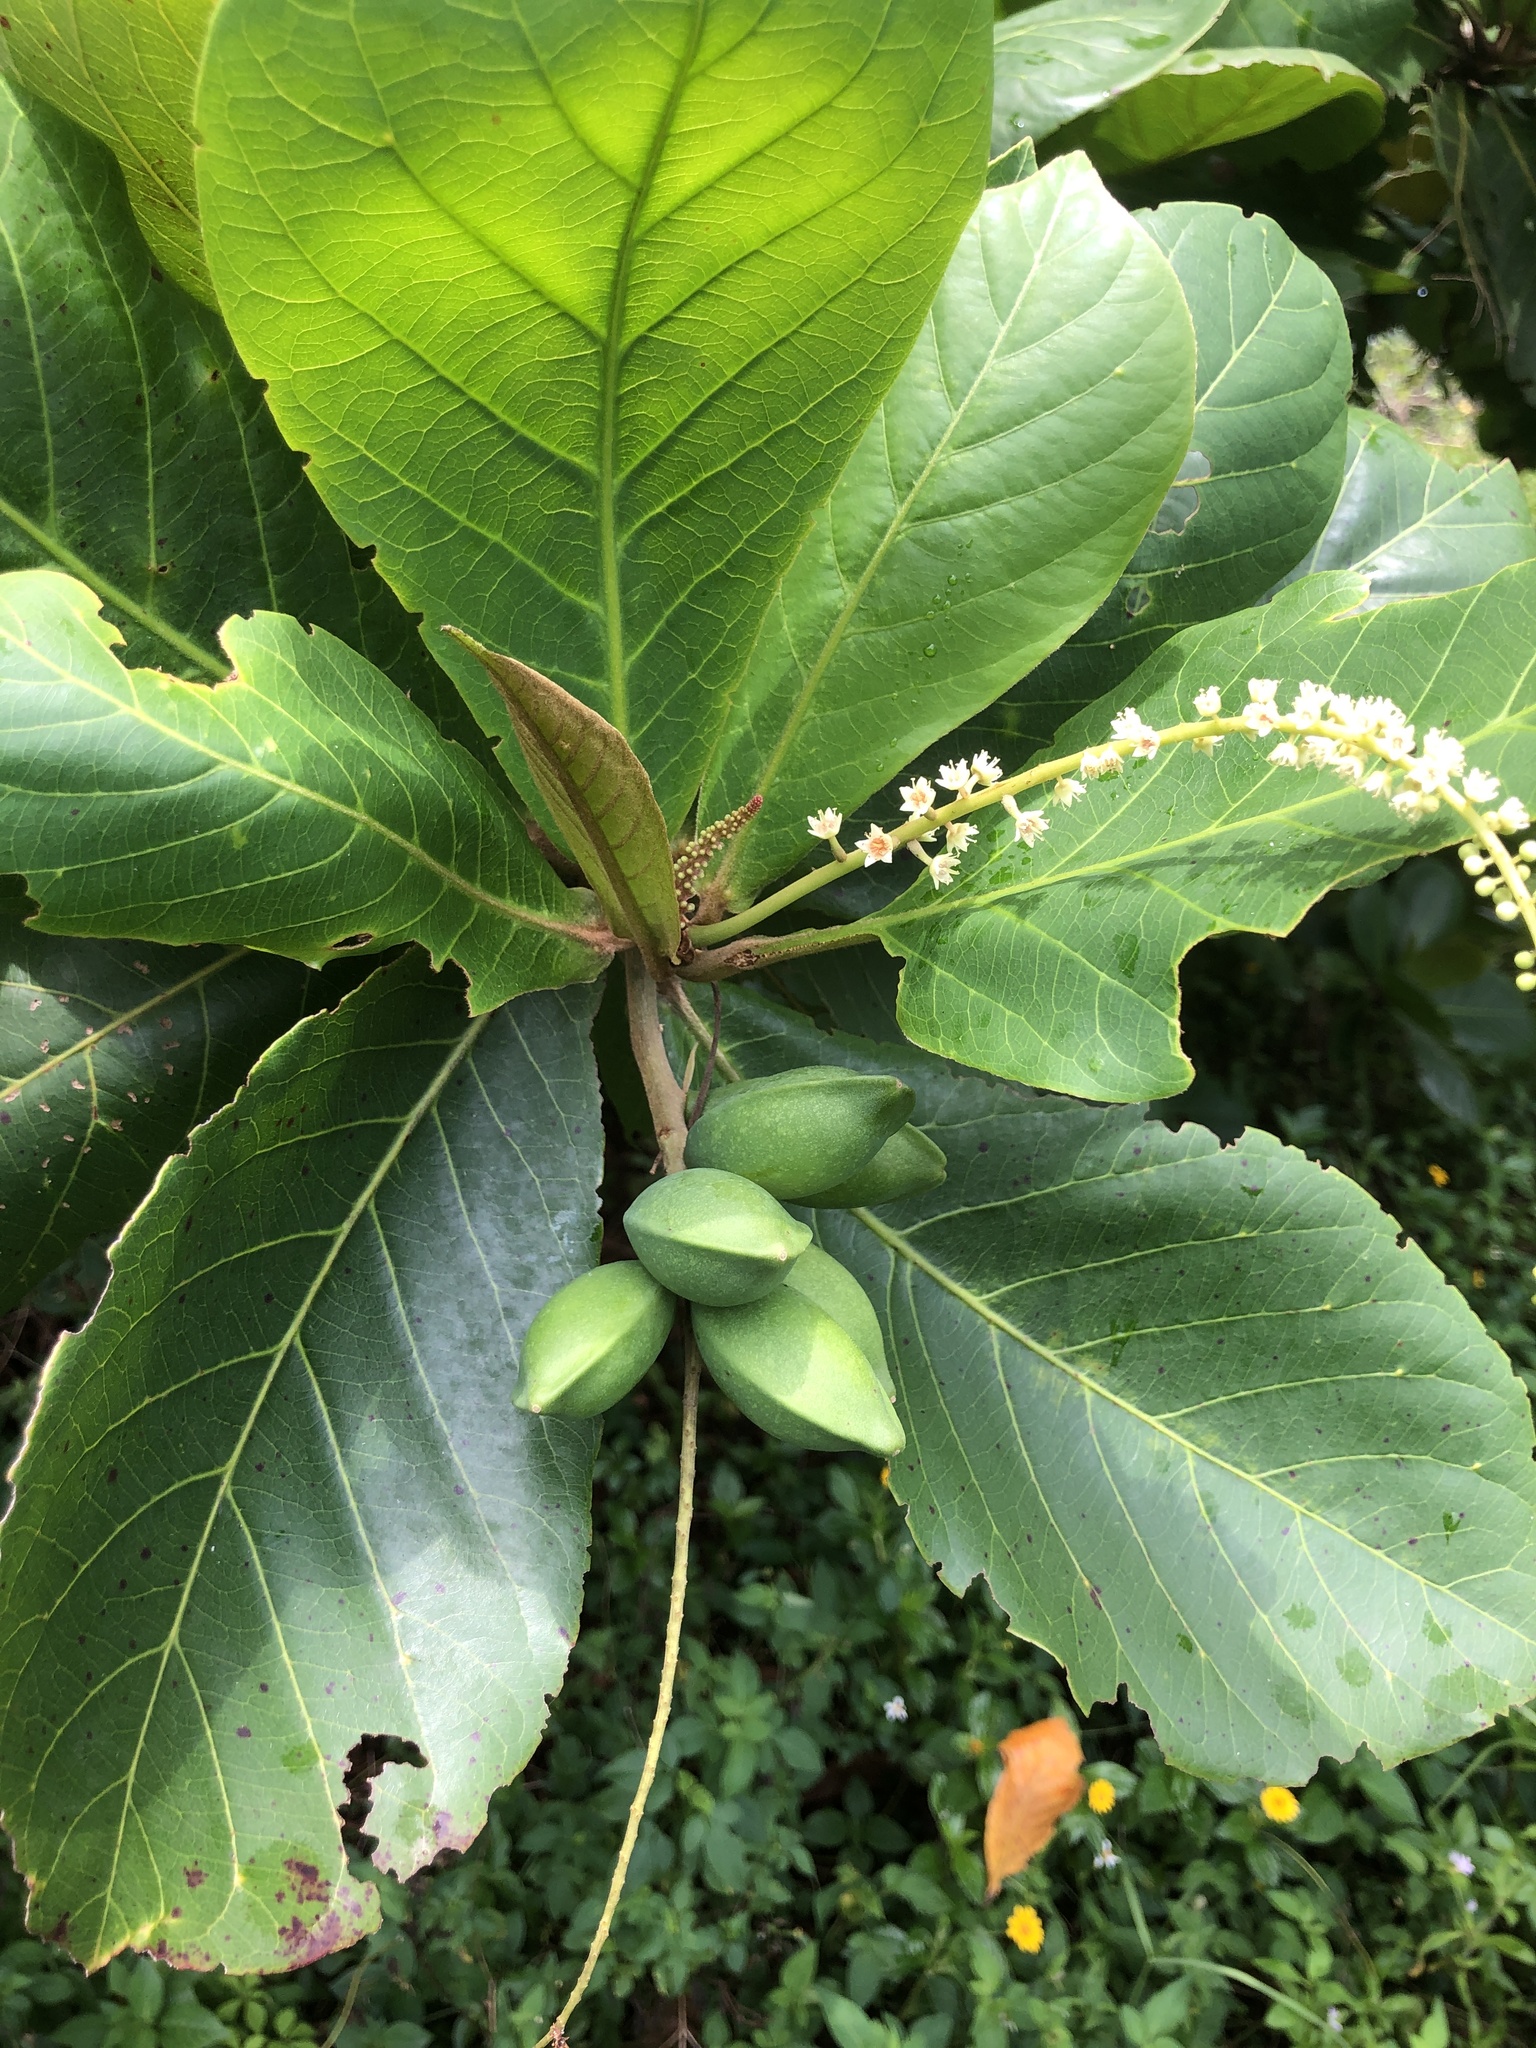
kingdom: Plantae
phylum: Tracheophyta
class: Magnoliopsida
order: Myrtales
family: Combretaceae
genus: Terminalia
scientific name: Terminalia catappa
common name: Tropical almond
